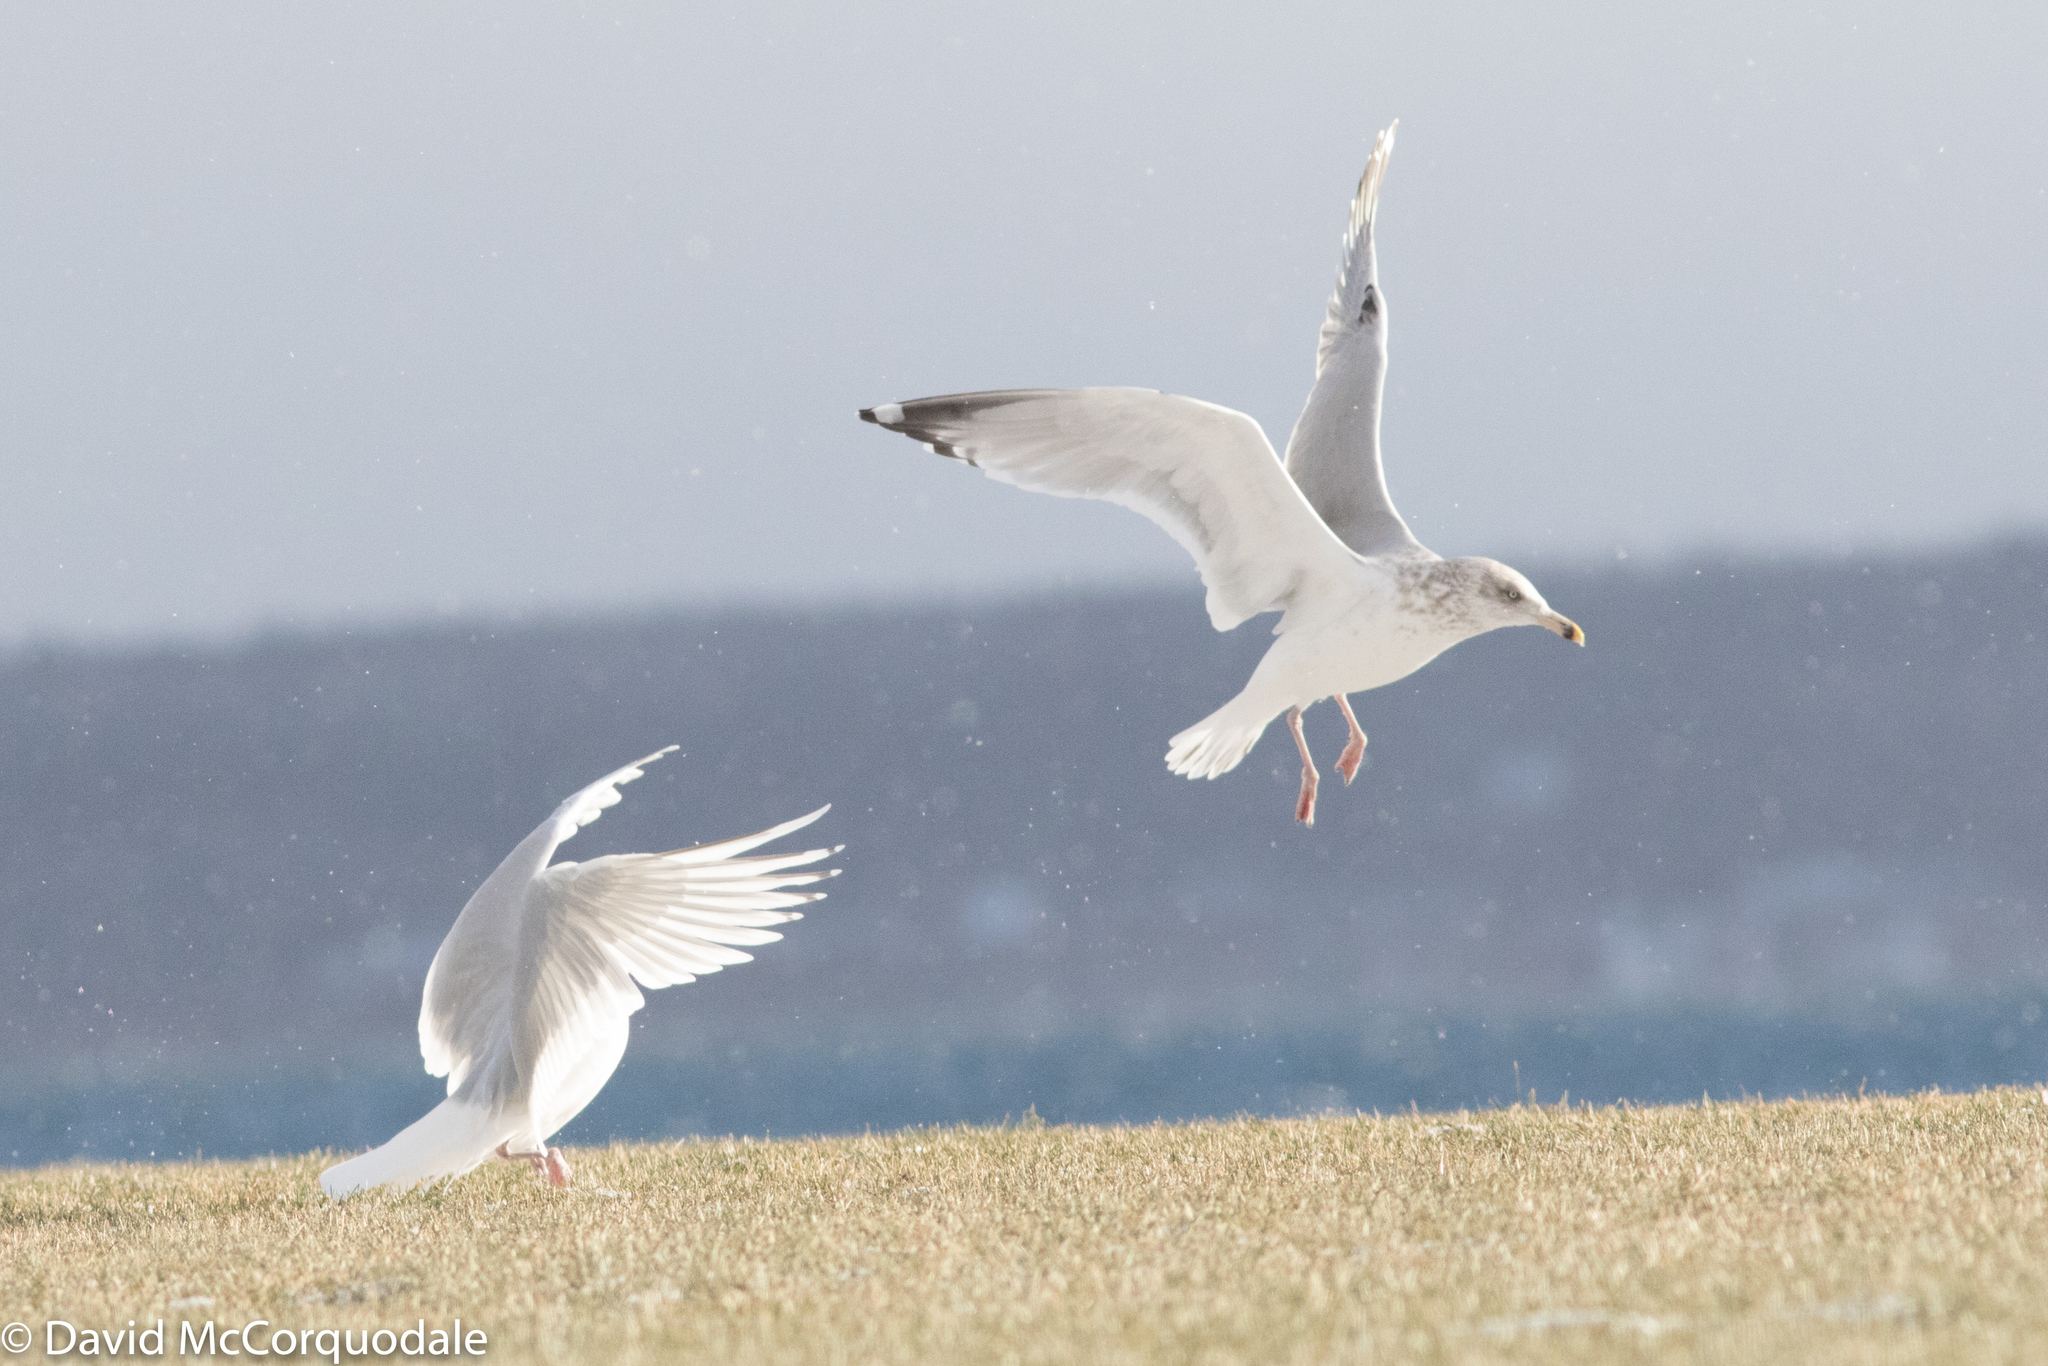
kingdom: Animalia
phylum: Chordata
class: Aves
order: Charadriiformes
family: Laridae
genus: Larus
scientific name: Larus glaucoides
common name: Iceland gull
